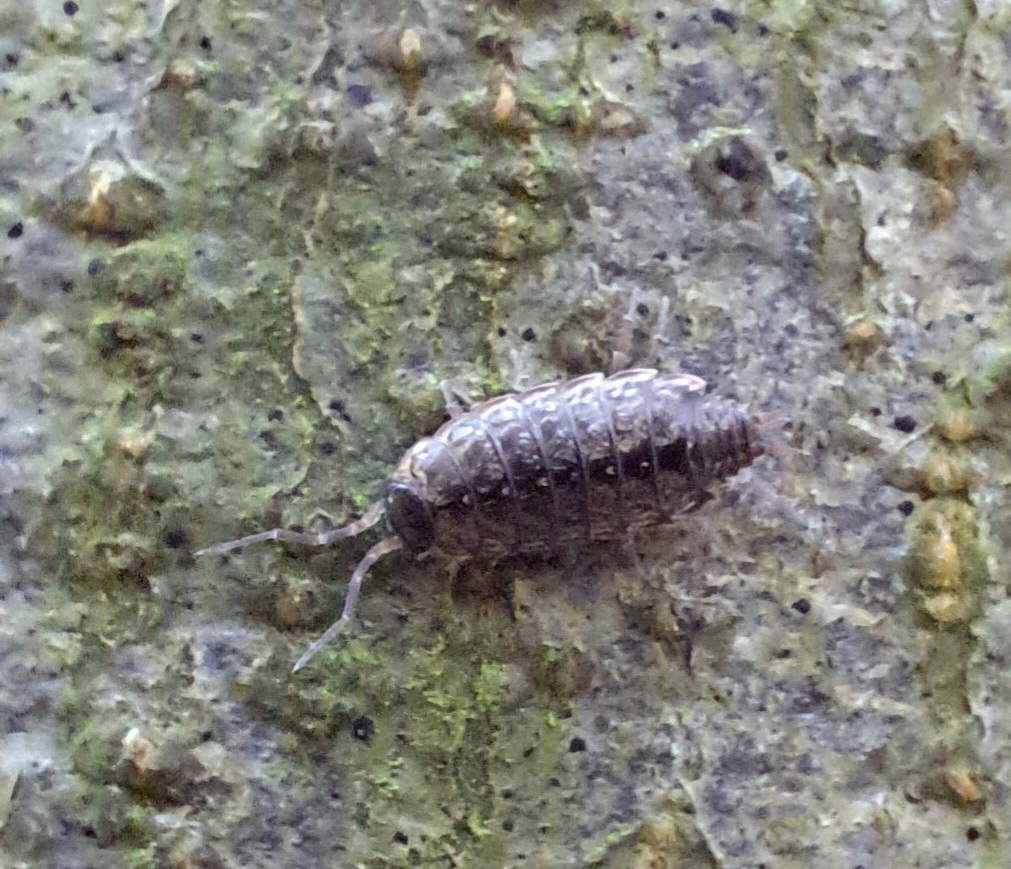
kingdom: Animalia
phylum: Arthropoda
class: Malacostraca
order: Isopoda
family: Philosciidae
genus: Philoscia
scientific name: Philoscia muscorum
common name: Common striped woodlouse
